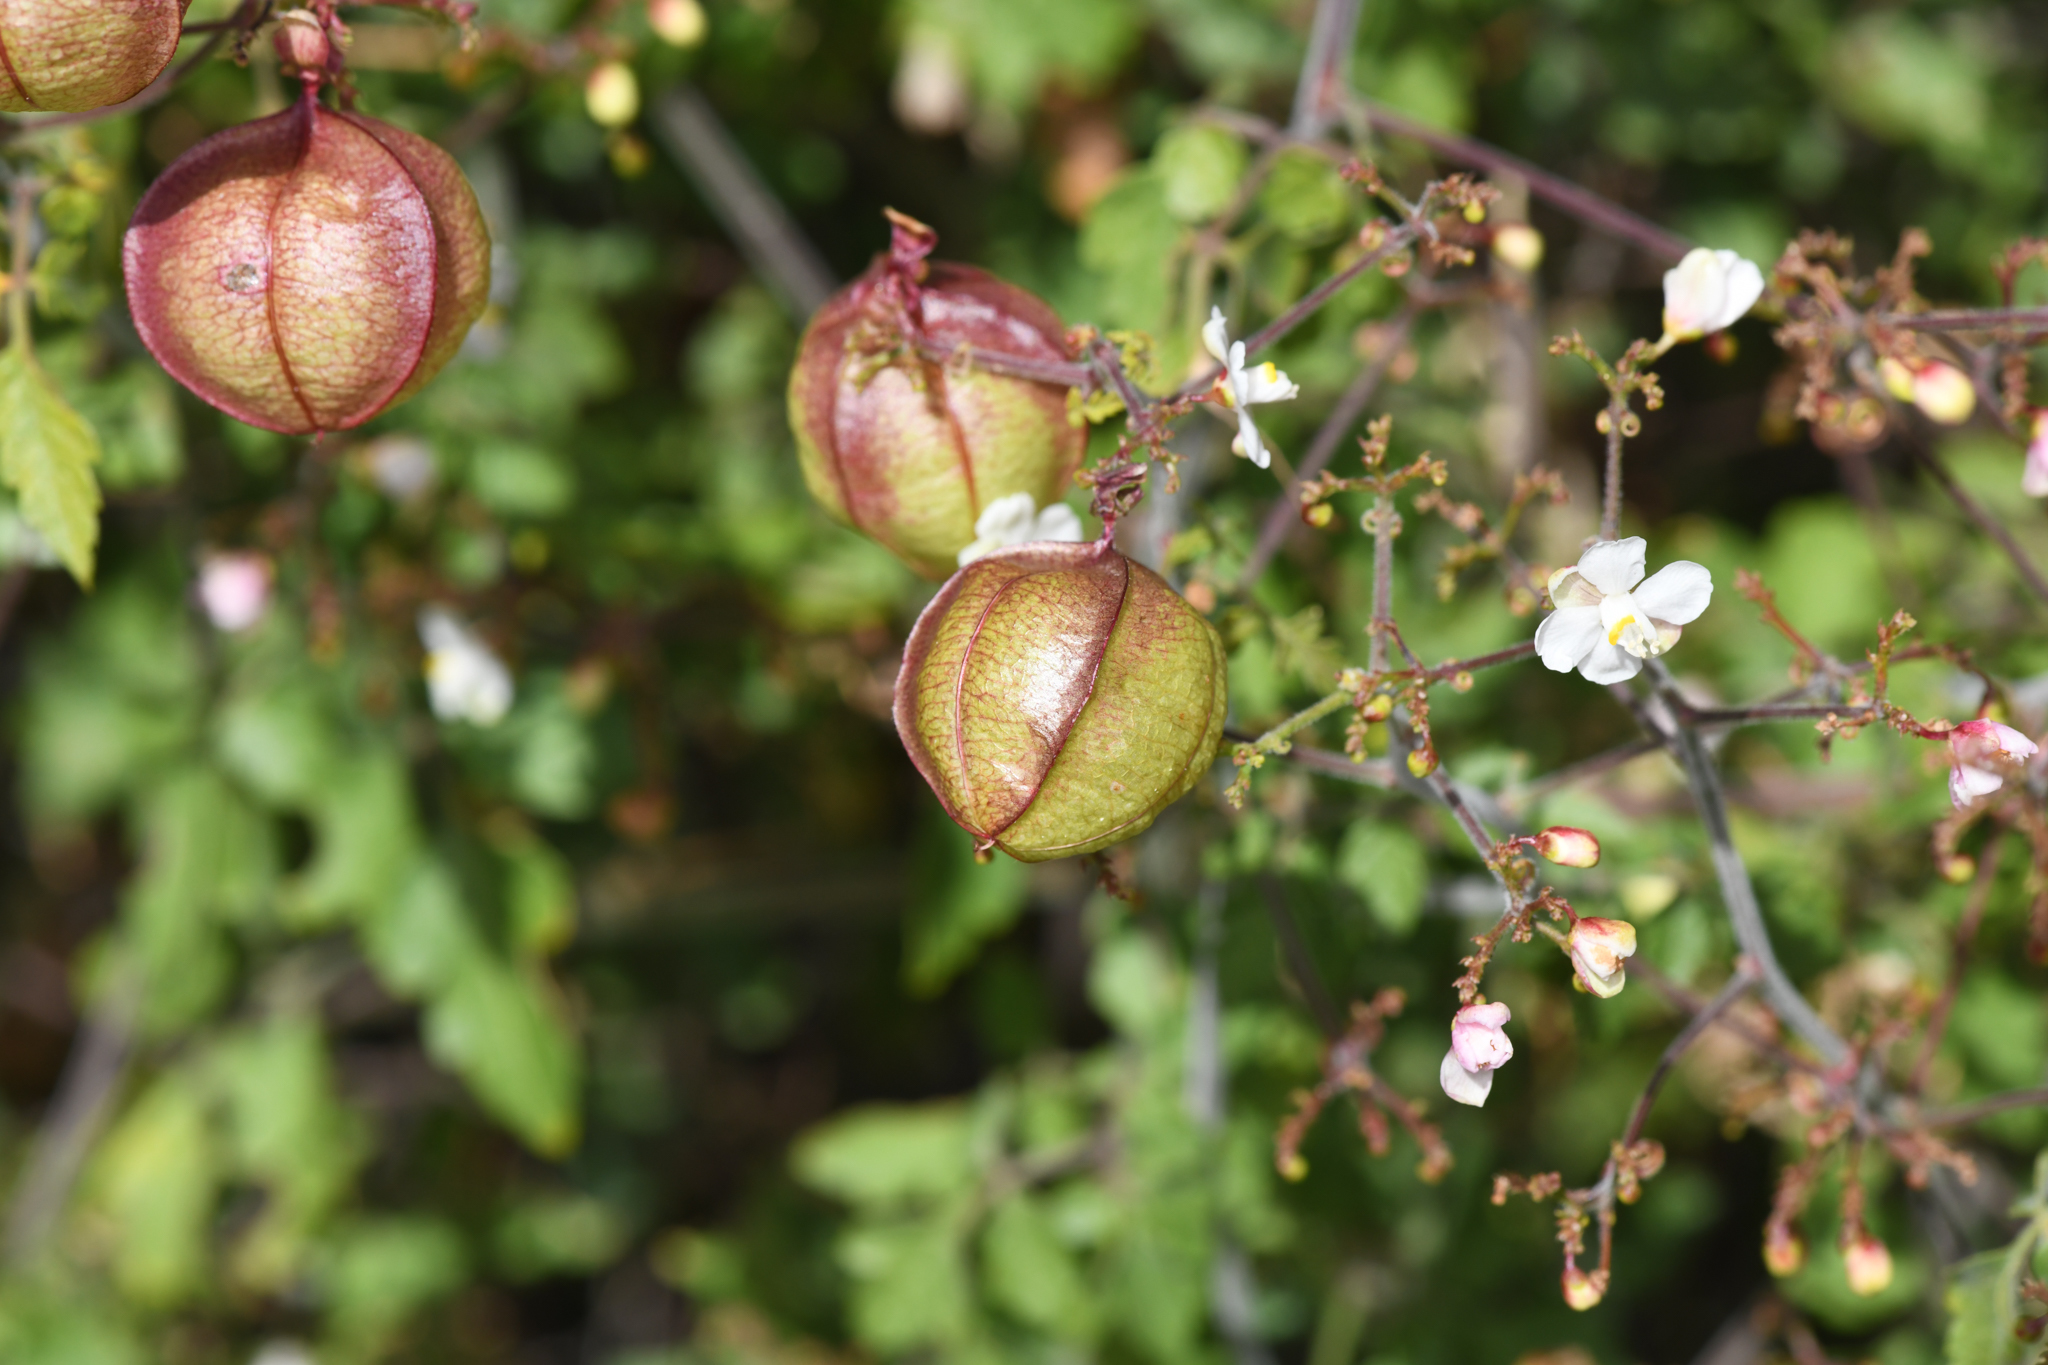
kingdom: Plantae
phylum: Tracheophyta
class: Magnoliopsida
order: Sapindales
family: Sapindaceae
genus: Cardiospermum
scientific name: Cardiospermum corindum
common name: Faux persil
